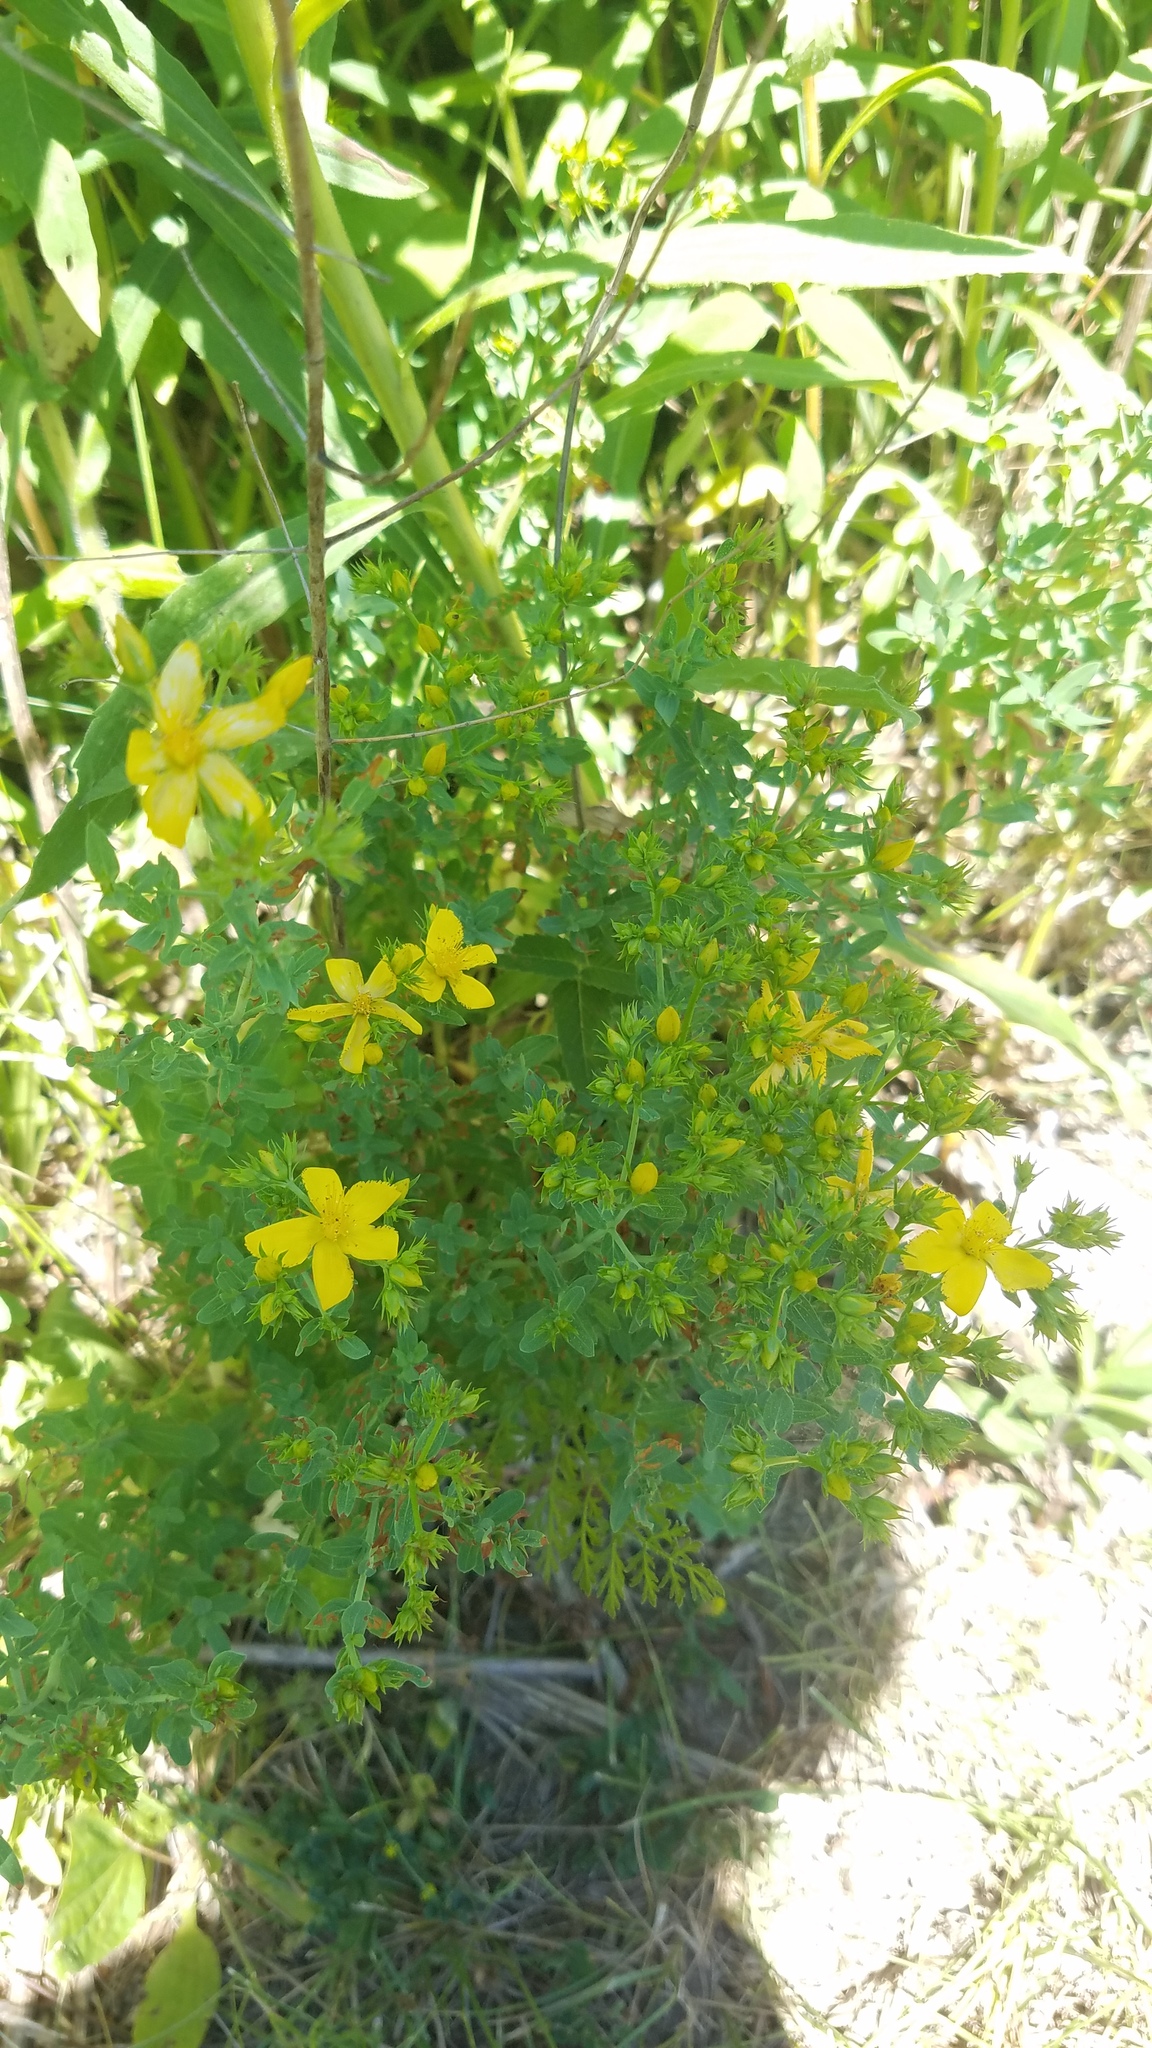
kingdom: Plantae
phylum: Tracheophyta
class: Magnoliopsida
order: Malpighiales
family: Hypericaceae
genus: Hypericum
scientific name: Hypericum perforatum
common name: Common st. johnswort
